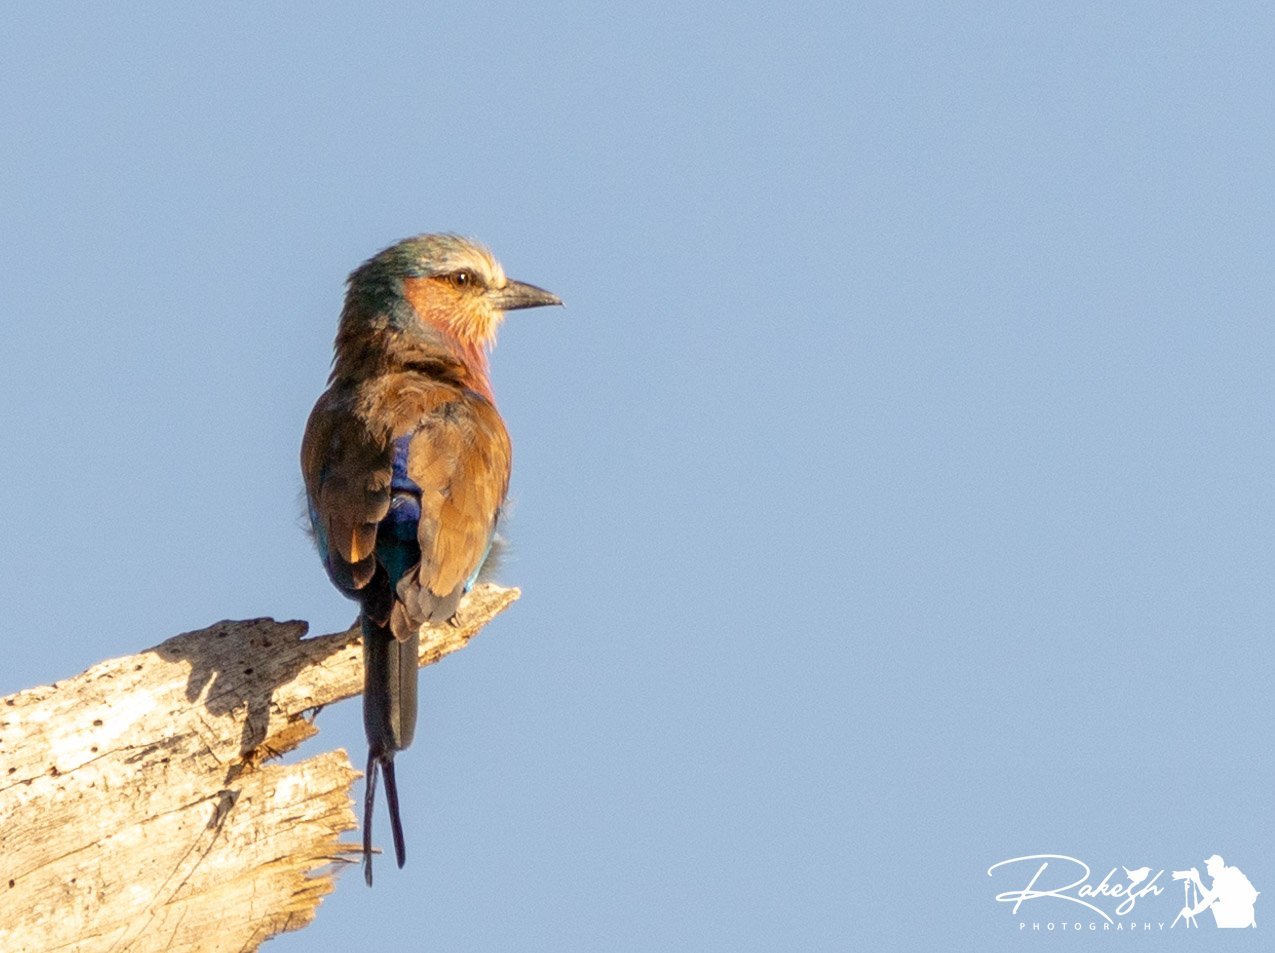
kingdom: Animalia
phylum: Chordata
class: Aves
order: Coraciiformes
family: Coraciidae
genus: Coracias
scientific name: Coracias caudatus
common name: Lilac-breasted roller
